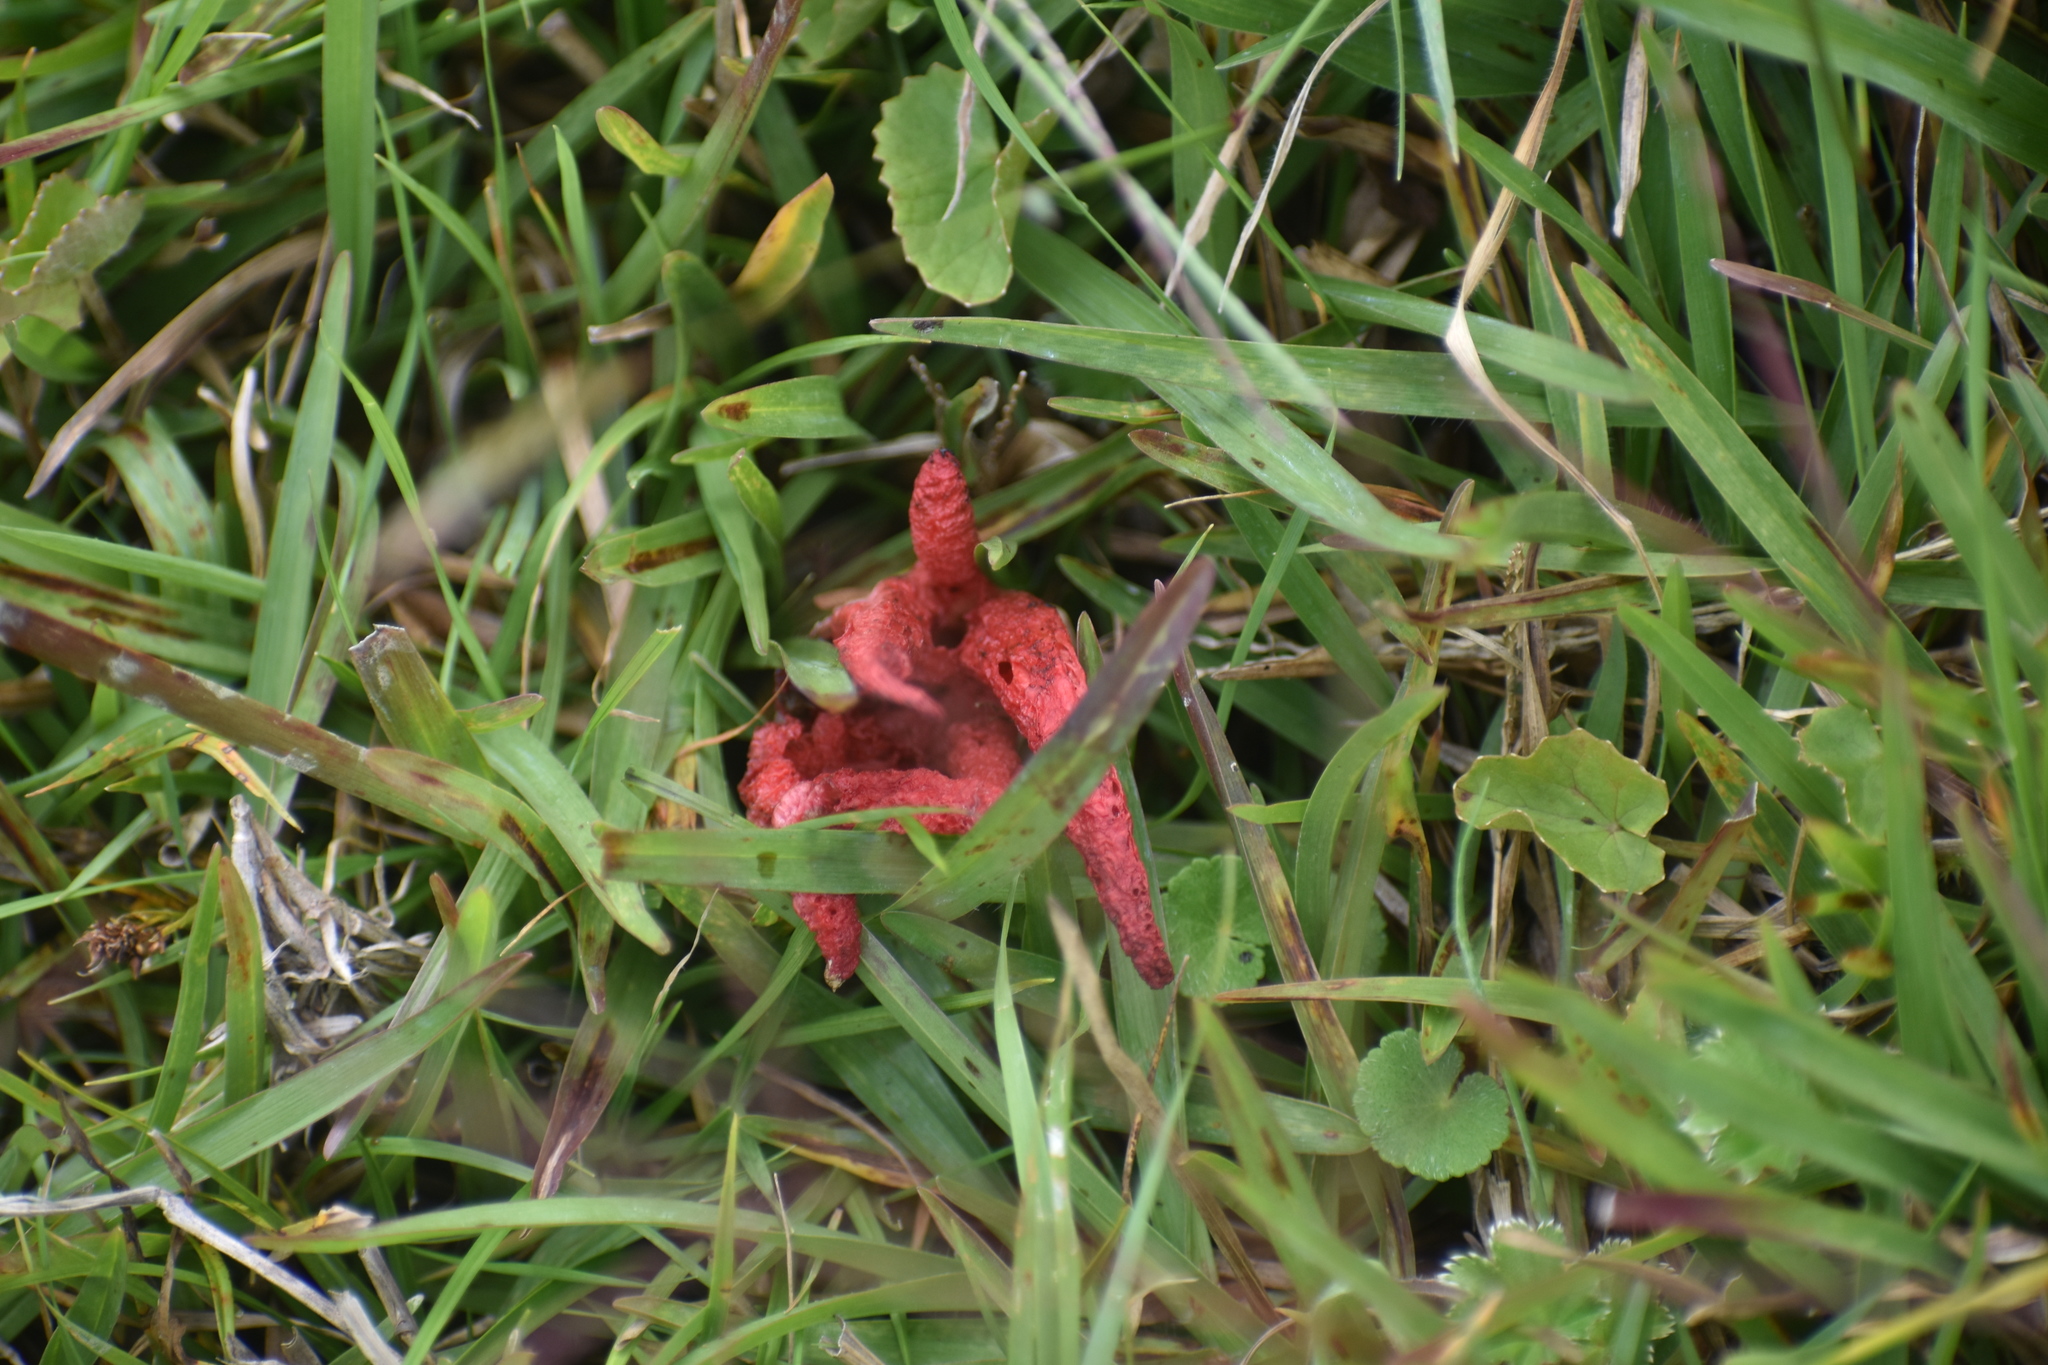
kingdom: Fungi
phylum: Basidiomycota
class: Agaricomycetes
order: Phallales
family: Phallaceae
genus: Clathrus
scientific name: Clathrus archeri
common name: Devil's fingers
